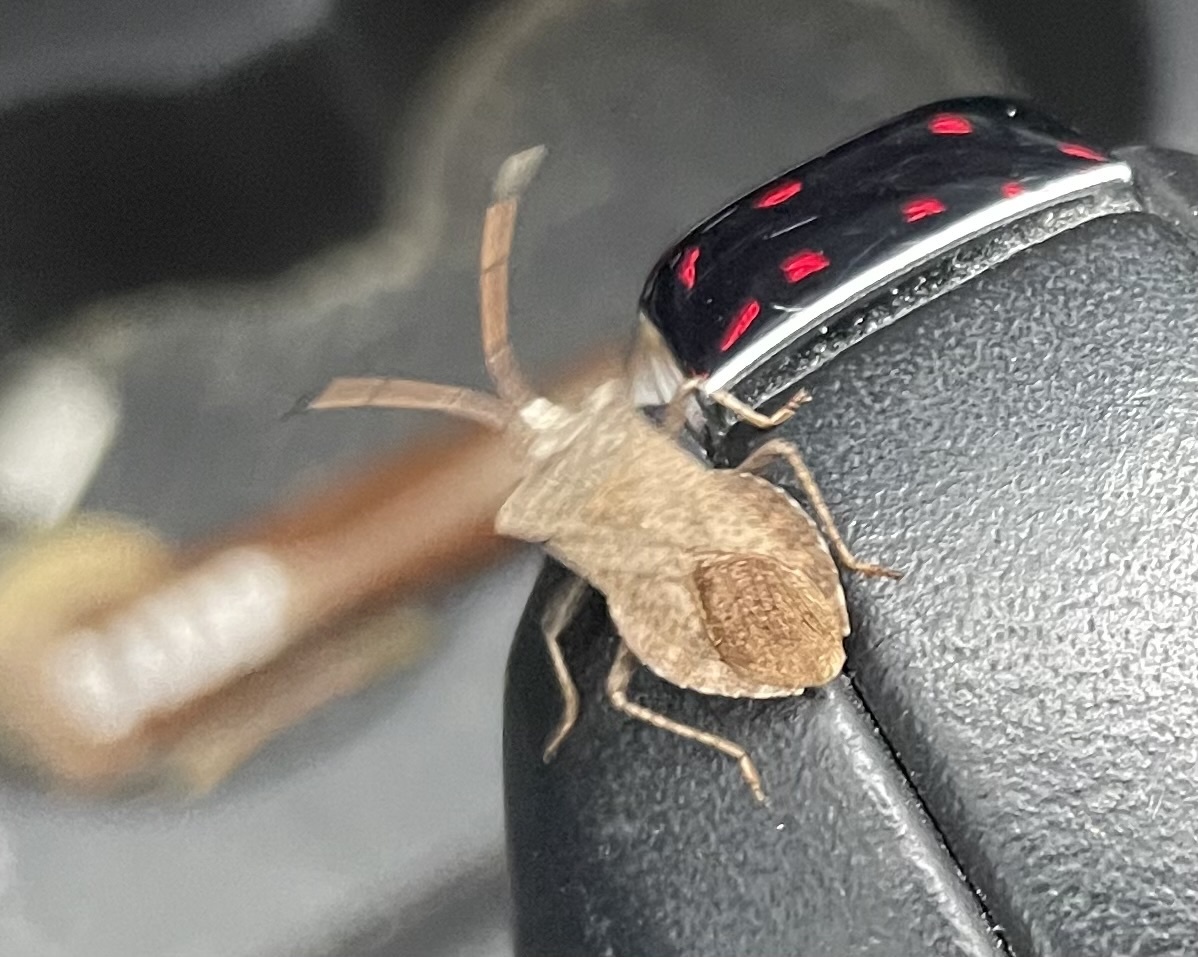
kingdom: Animalia
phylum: Arthropoda
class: Insecta
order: Hemiptera
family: Coreidae
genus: Coreus
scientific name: Coreus marginatus
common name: Dock bug
